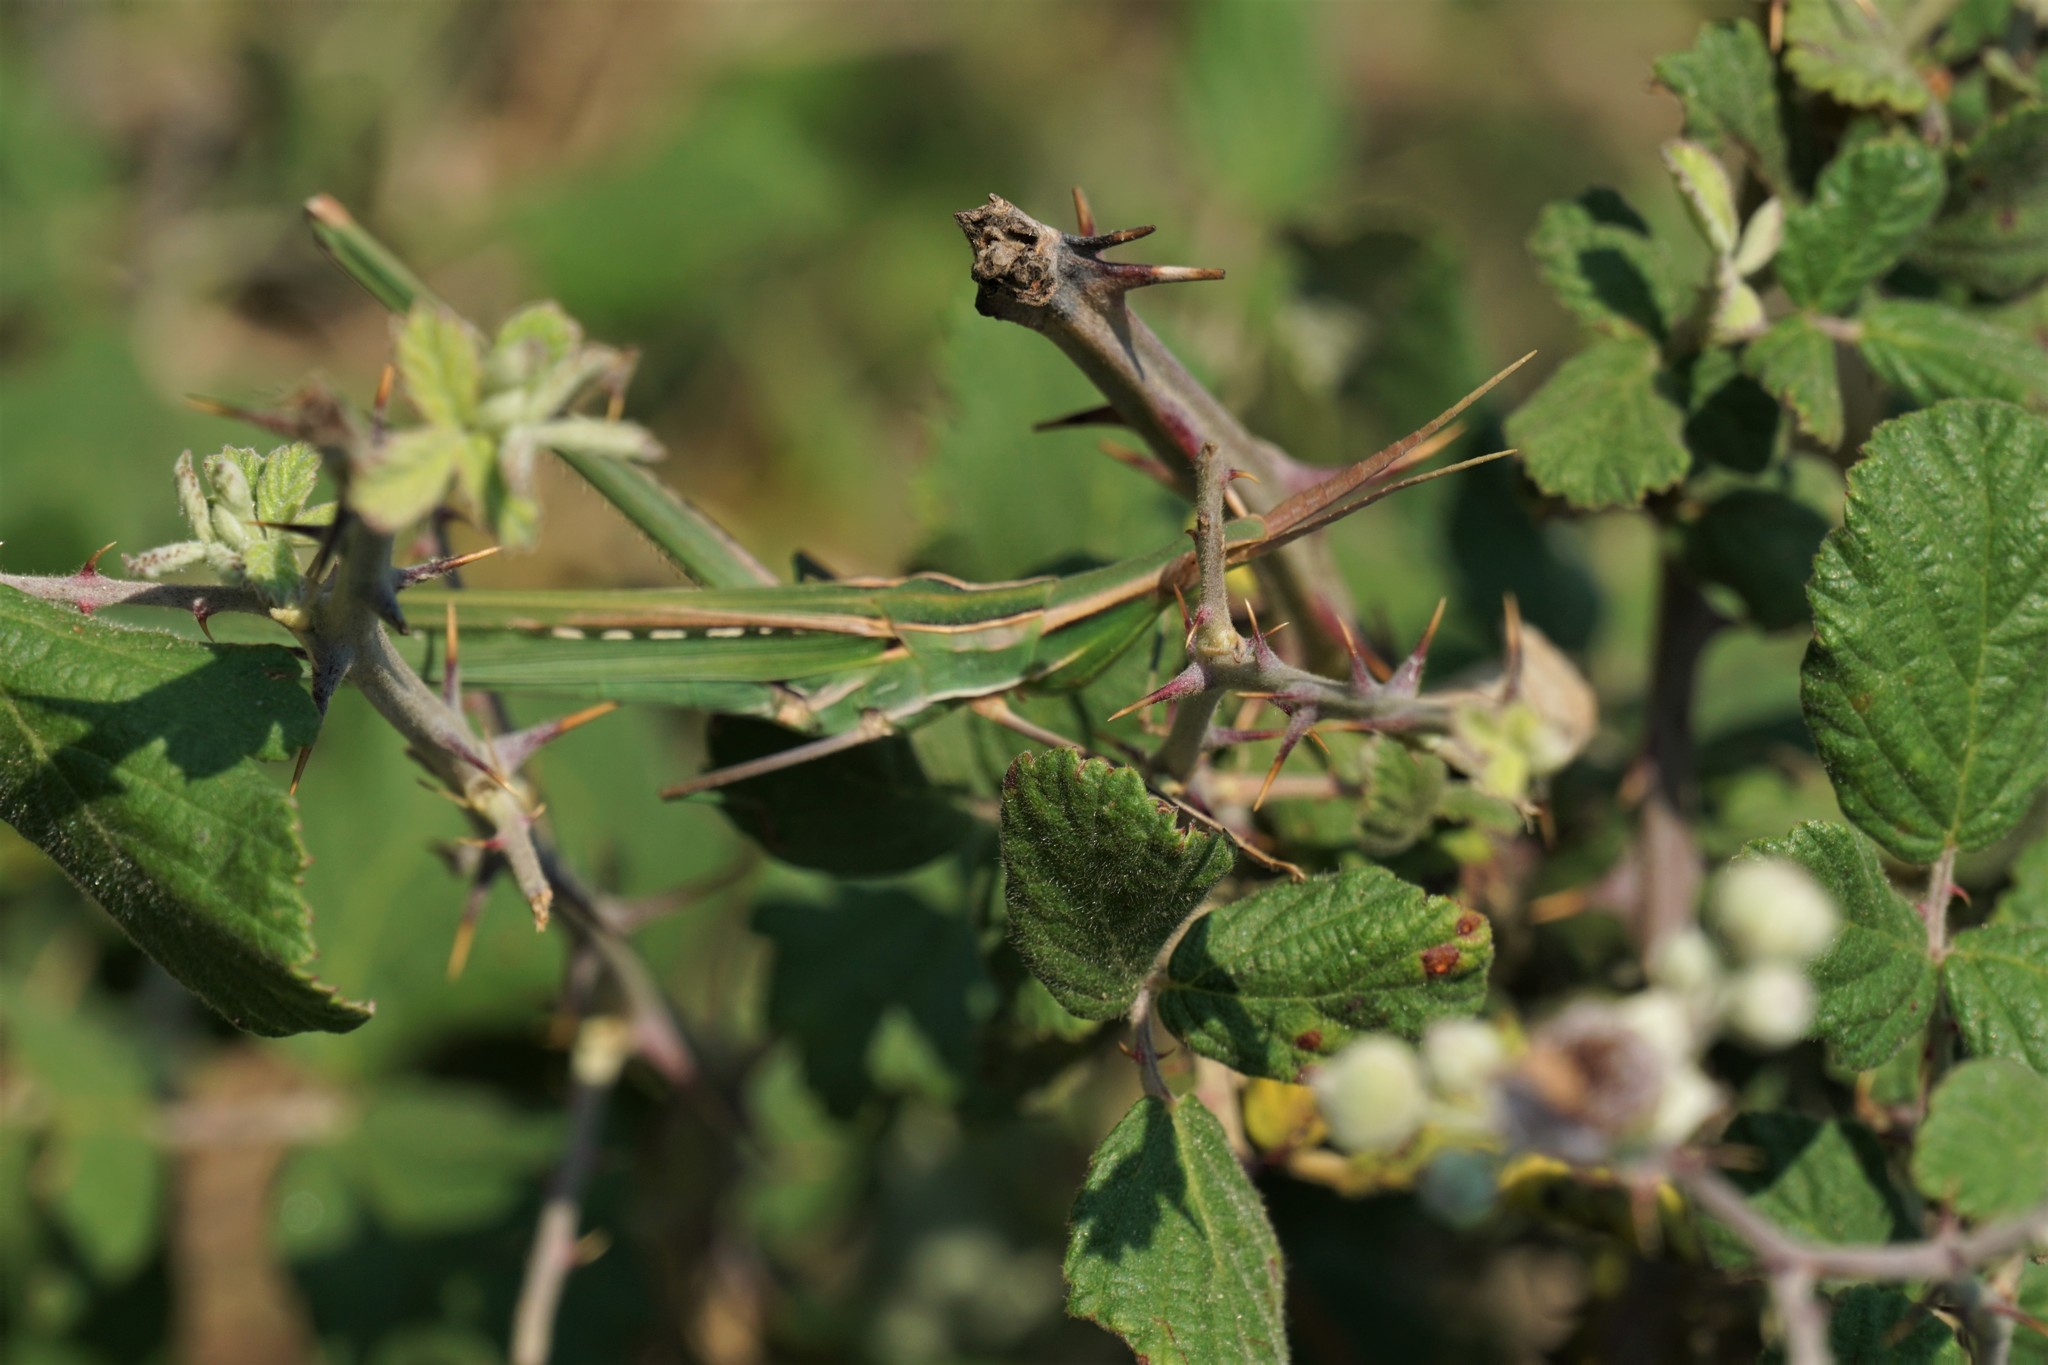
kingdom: Animalia
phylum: Arthropoda
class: Insecta
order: Orthoptera
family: Acrididae
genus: Acrida
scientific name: Acrida ungarica
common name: Common cone-headed grasshopper
